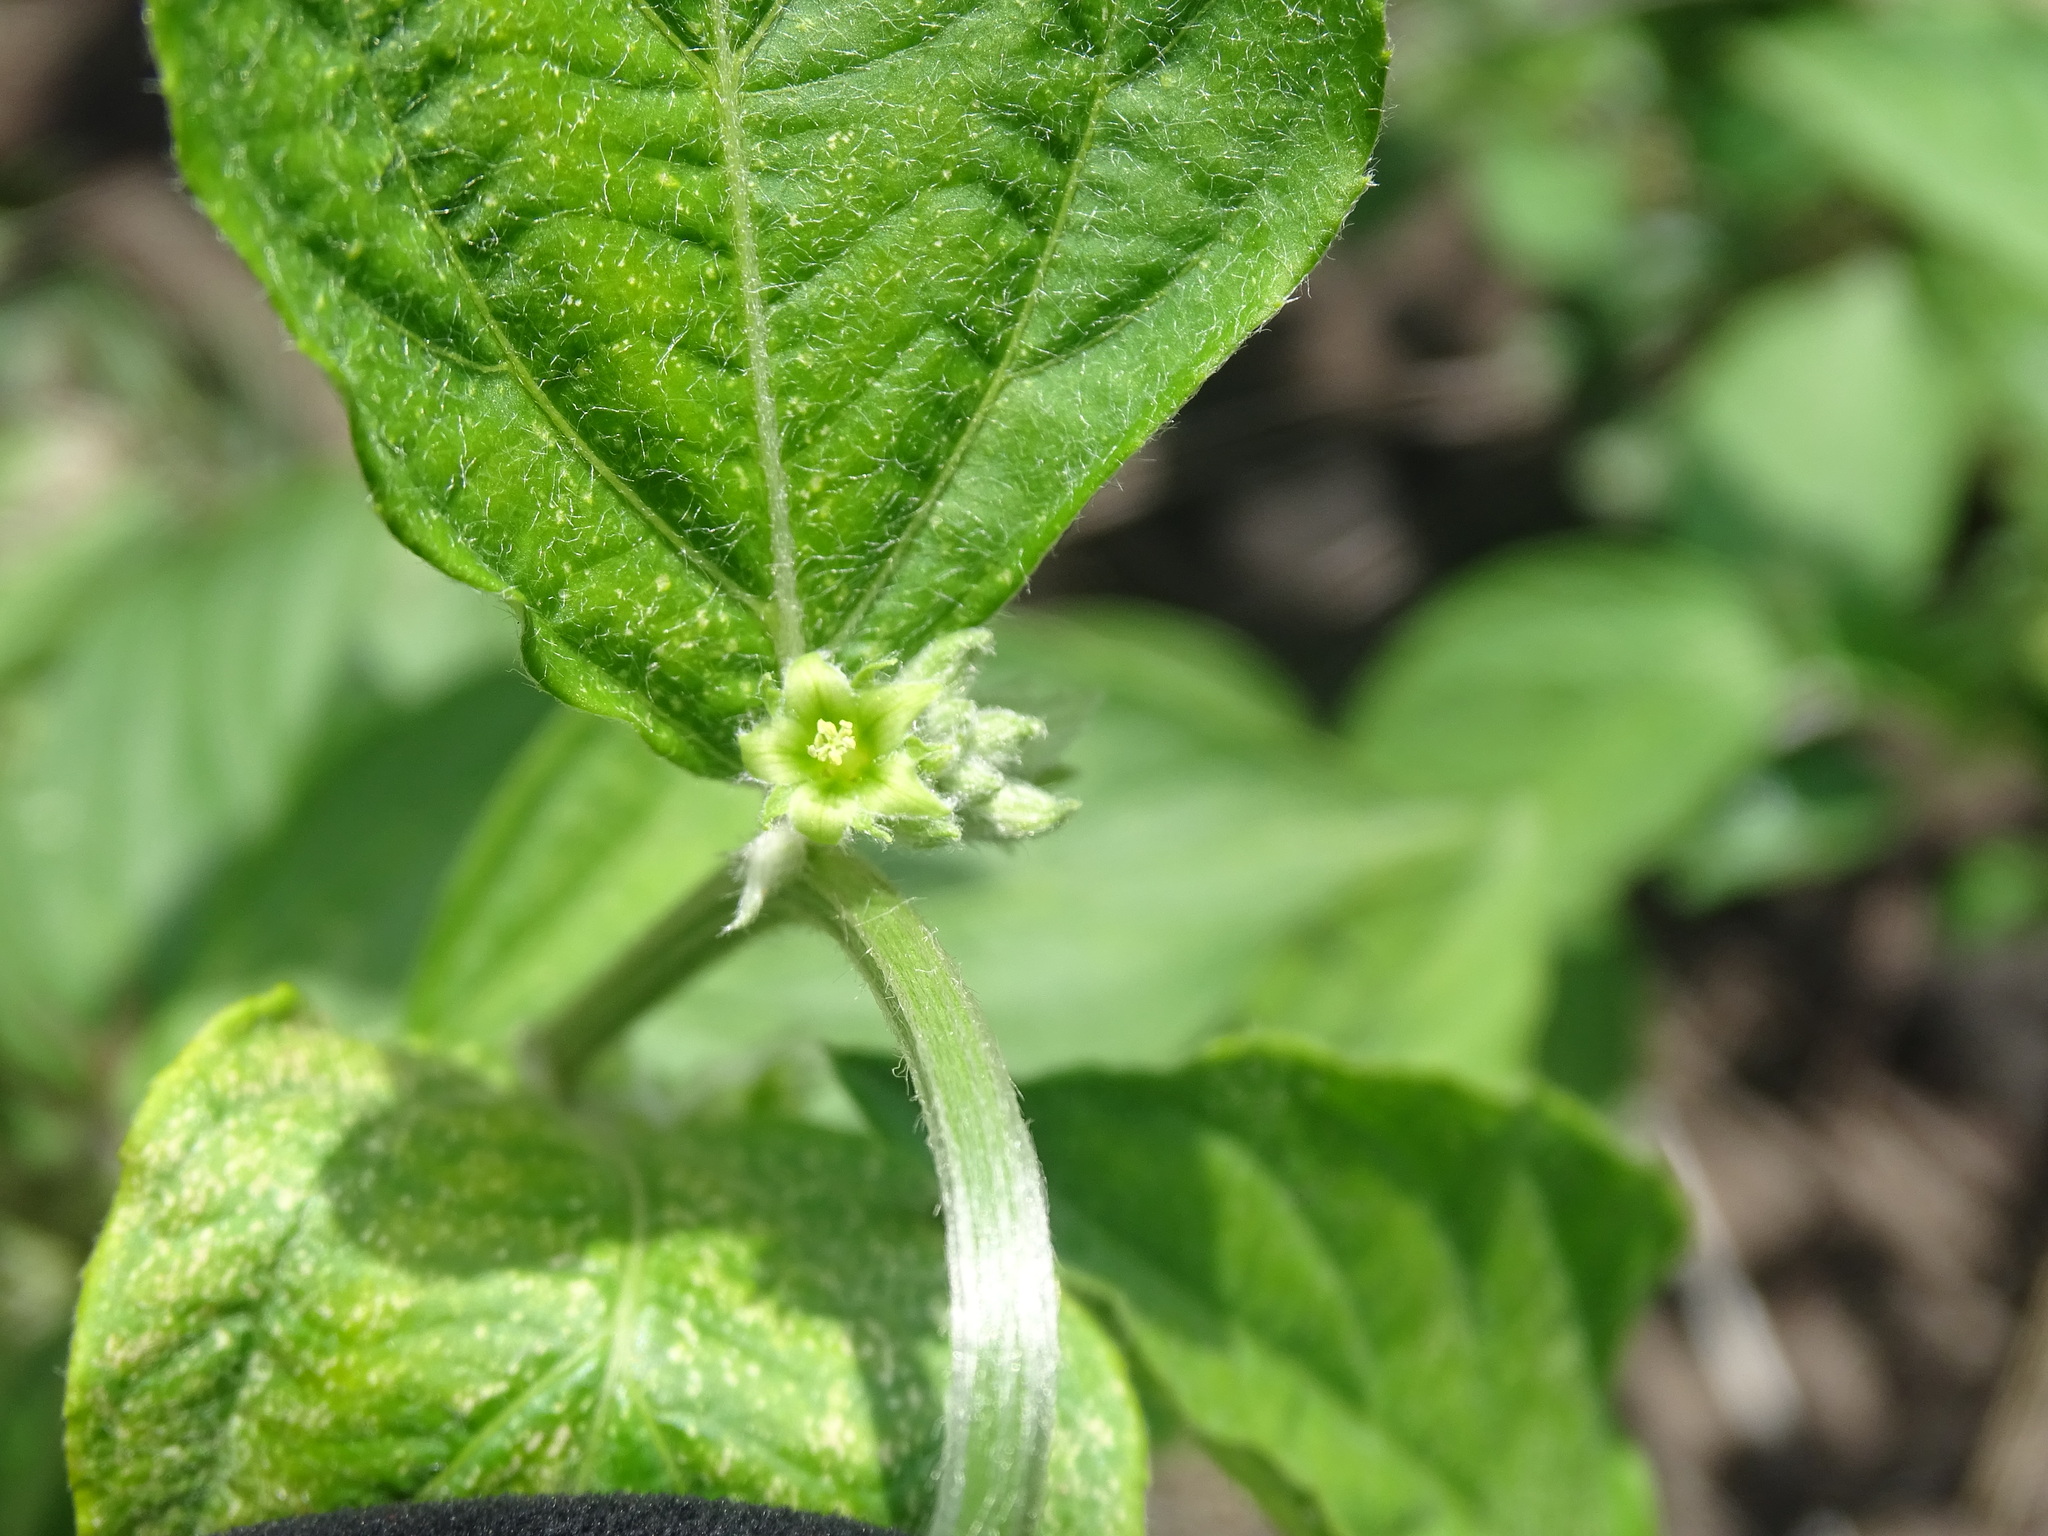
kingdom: Plantae
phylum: Tracheophyta
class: Magnoliopsida
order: Malpighiales
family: Euphorbiaceae
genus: Ditaxis
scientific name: Ditaxis guatemalensis
